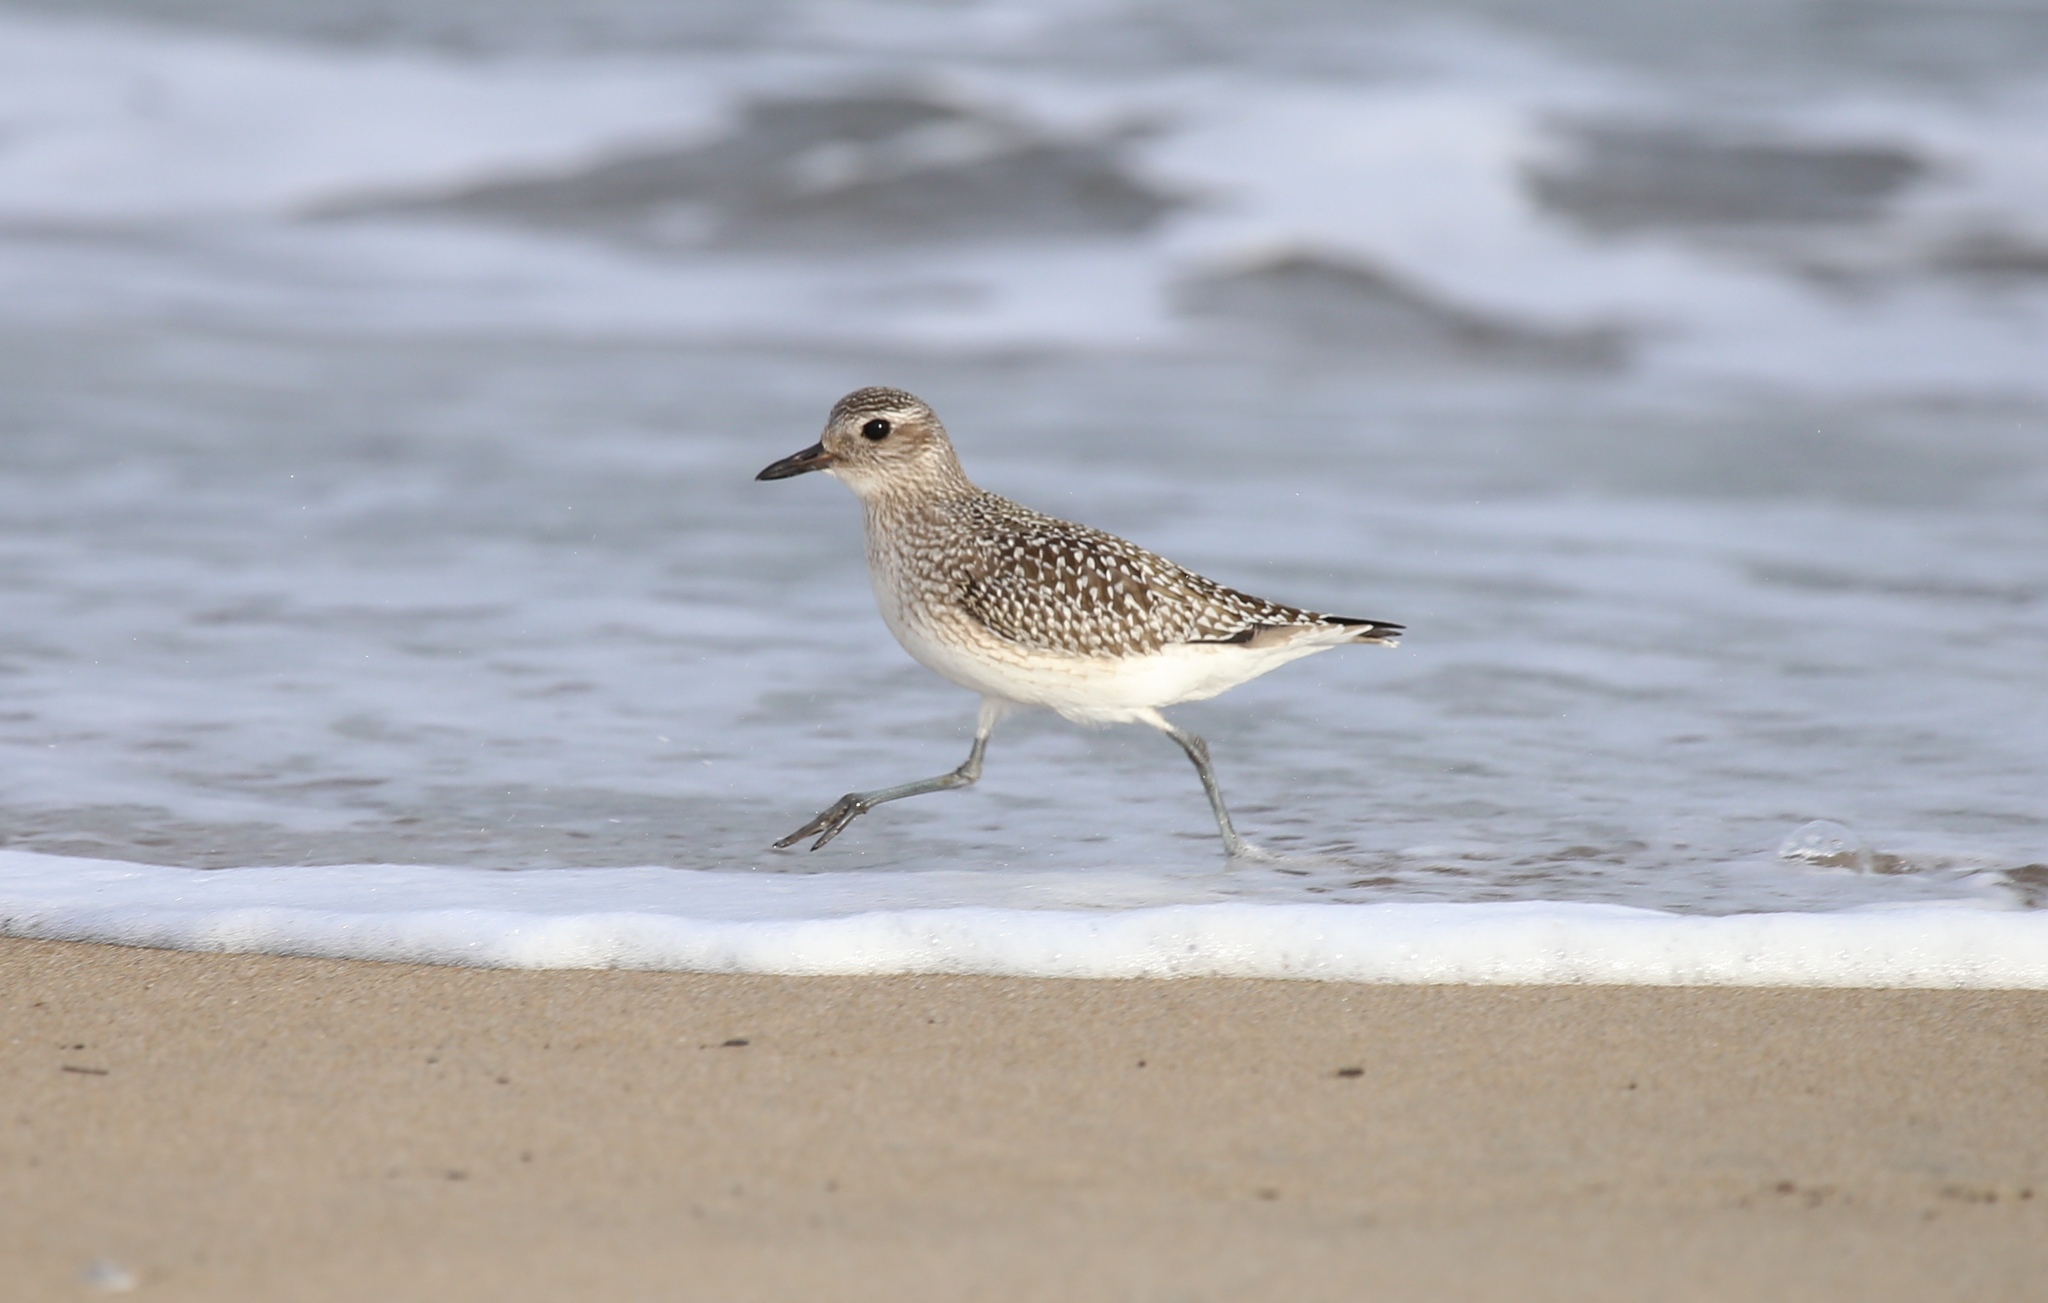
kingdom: Animalia
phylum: Chordata
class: Aves
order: Charadriiformes
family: Charadriidae
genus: Pluvialis
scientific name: Pluvialis squatarola
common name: Grey plover
